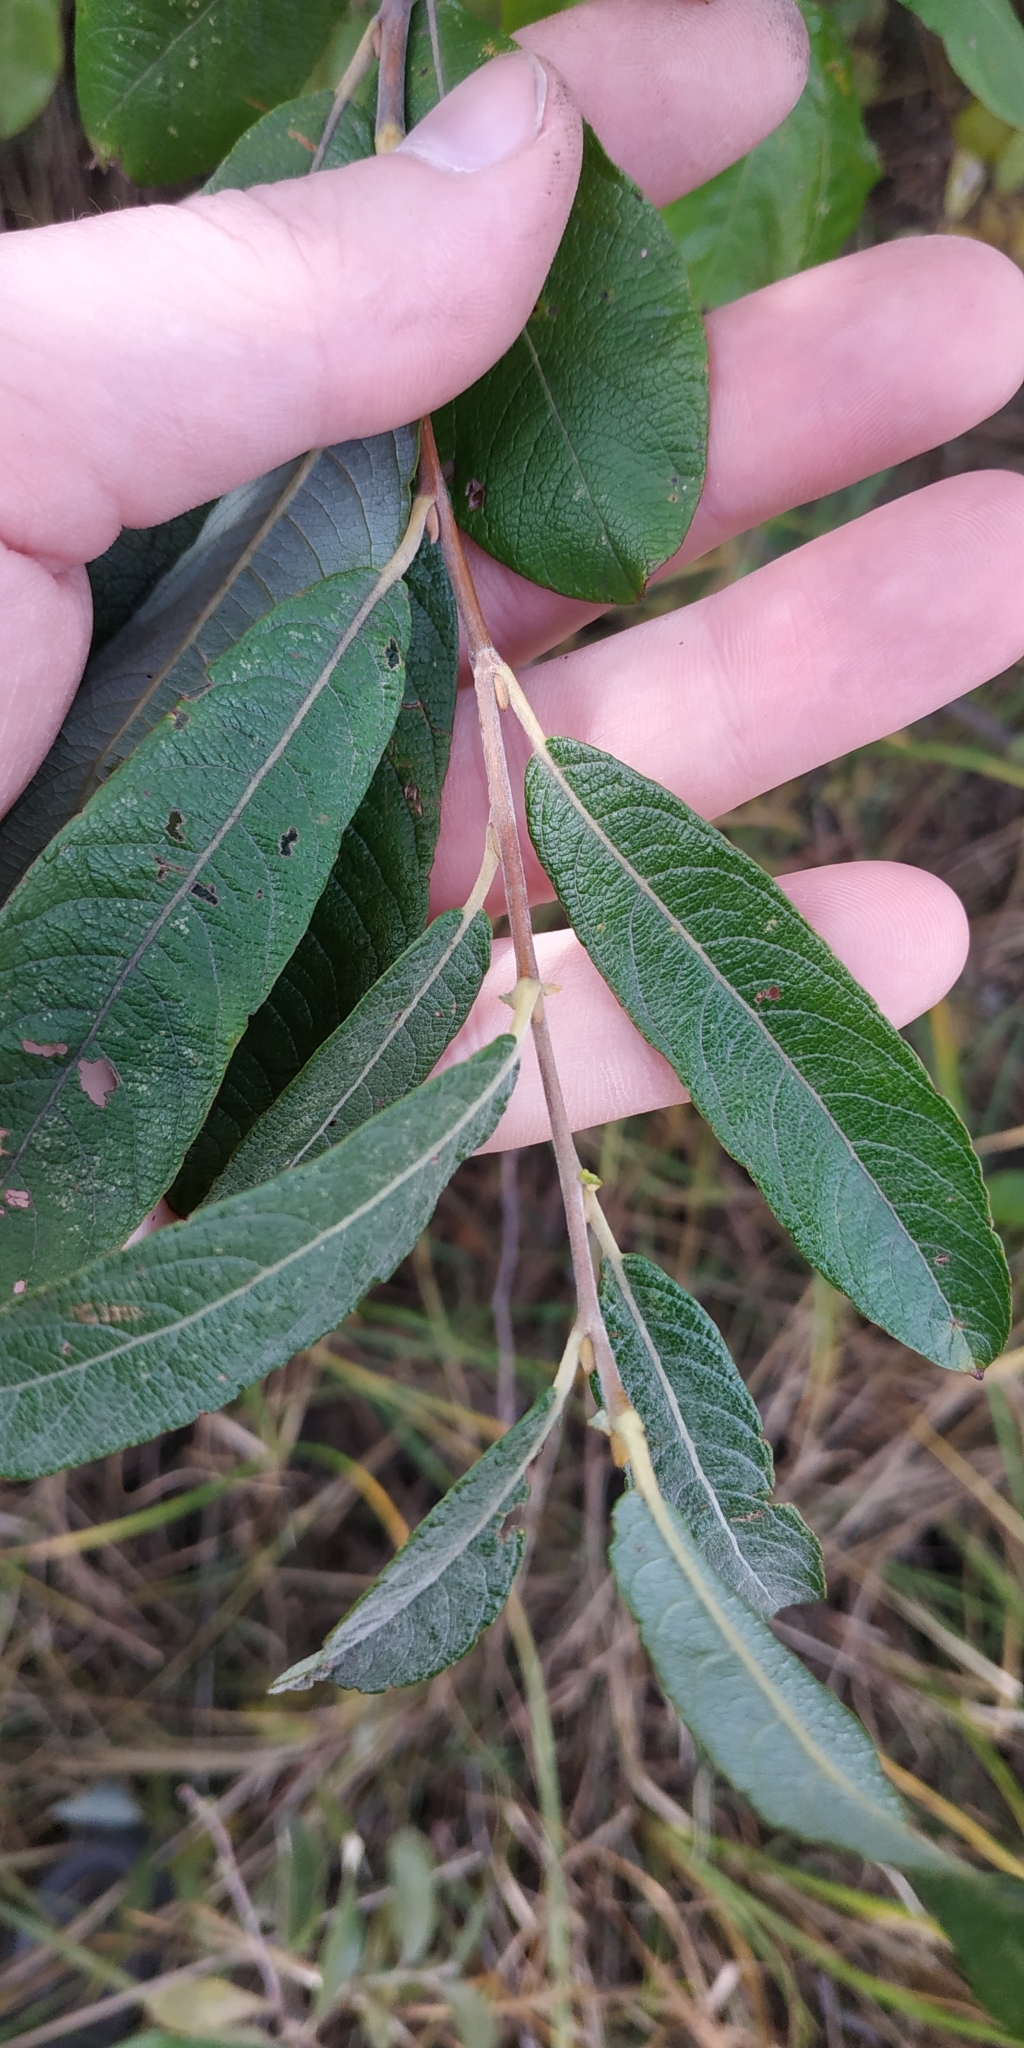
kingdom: Plantae
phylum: Tracheophyta
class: Magnoliopsida
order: Malpighiales
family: Salicaceae
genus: Salix
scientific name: Salix cinerea
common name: Common sallow
